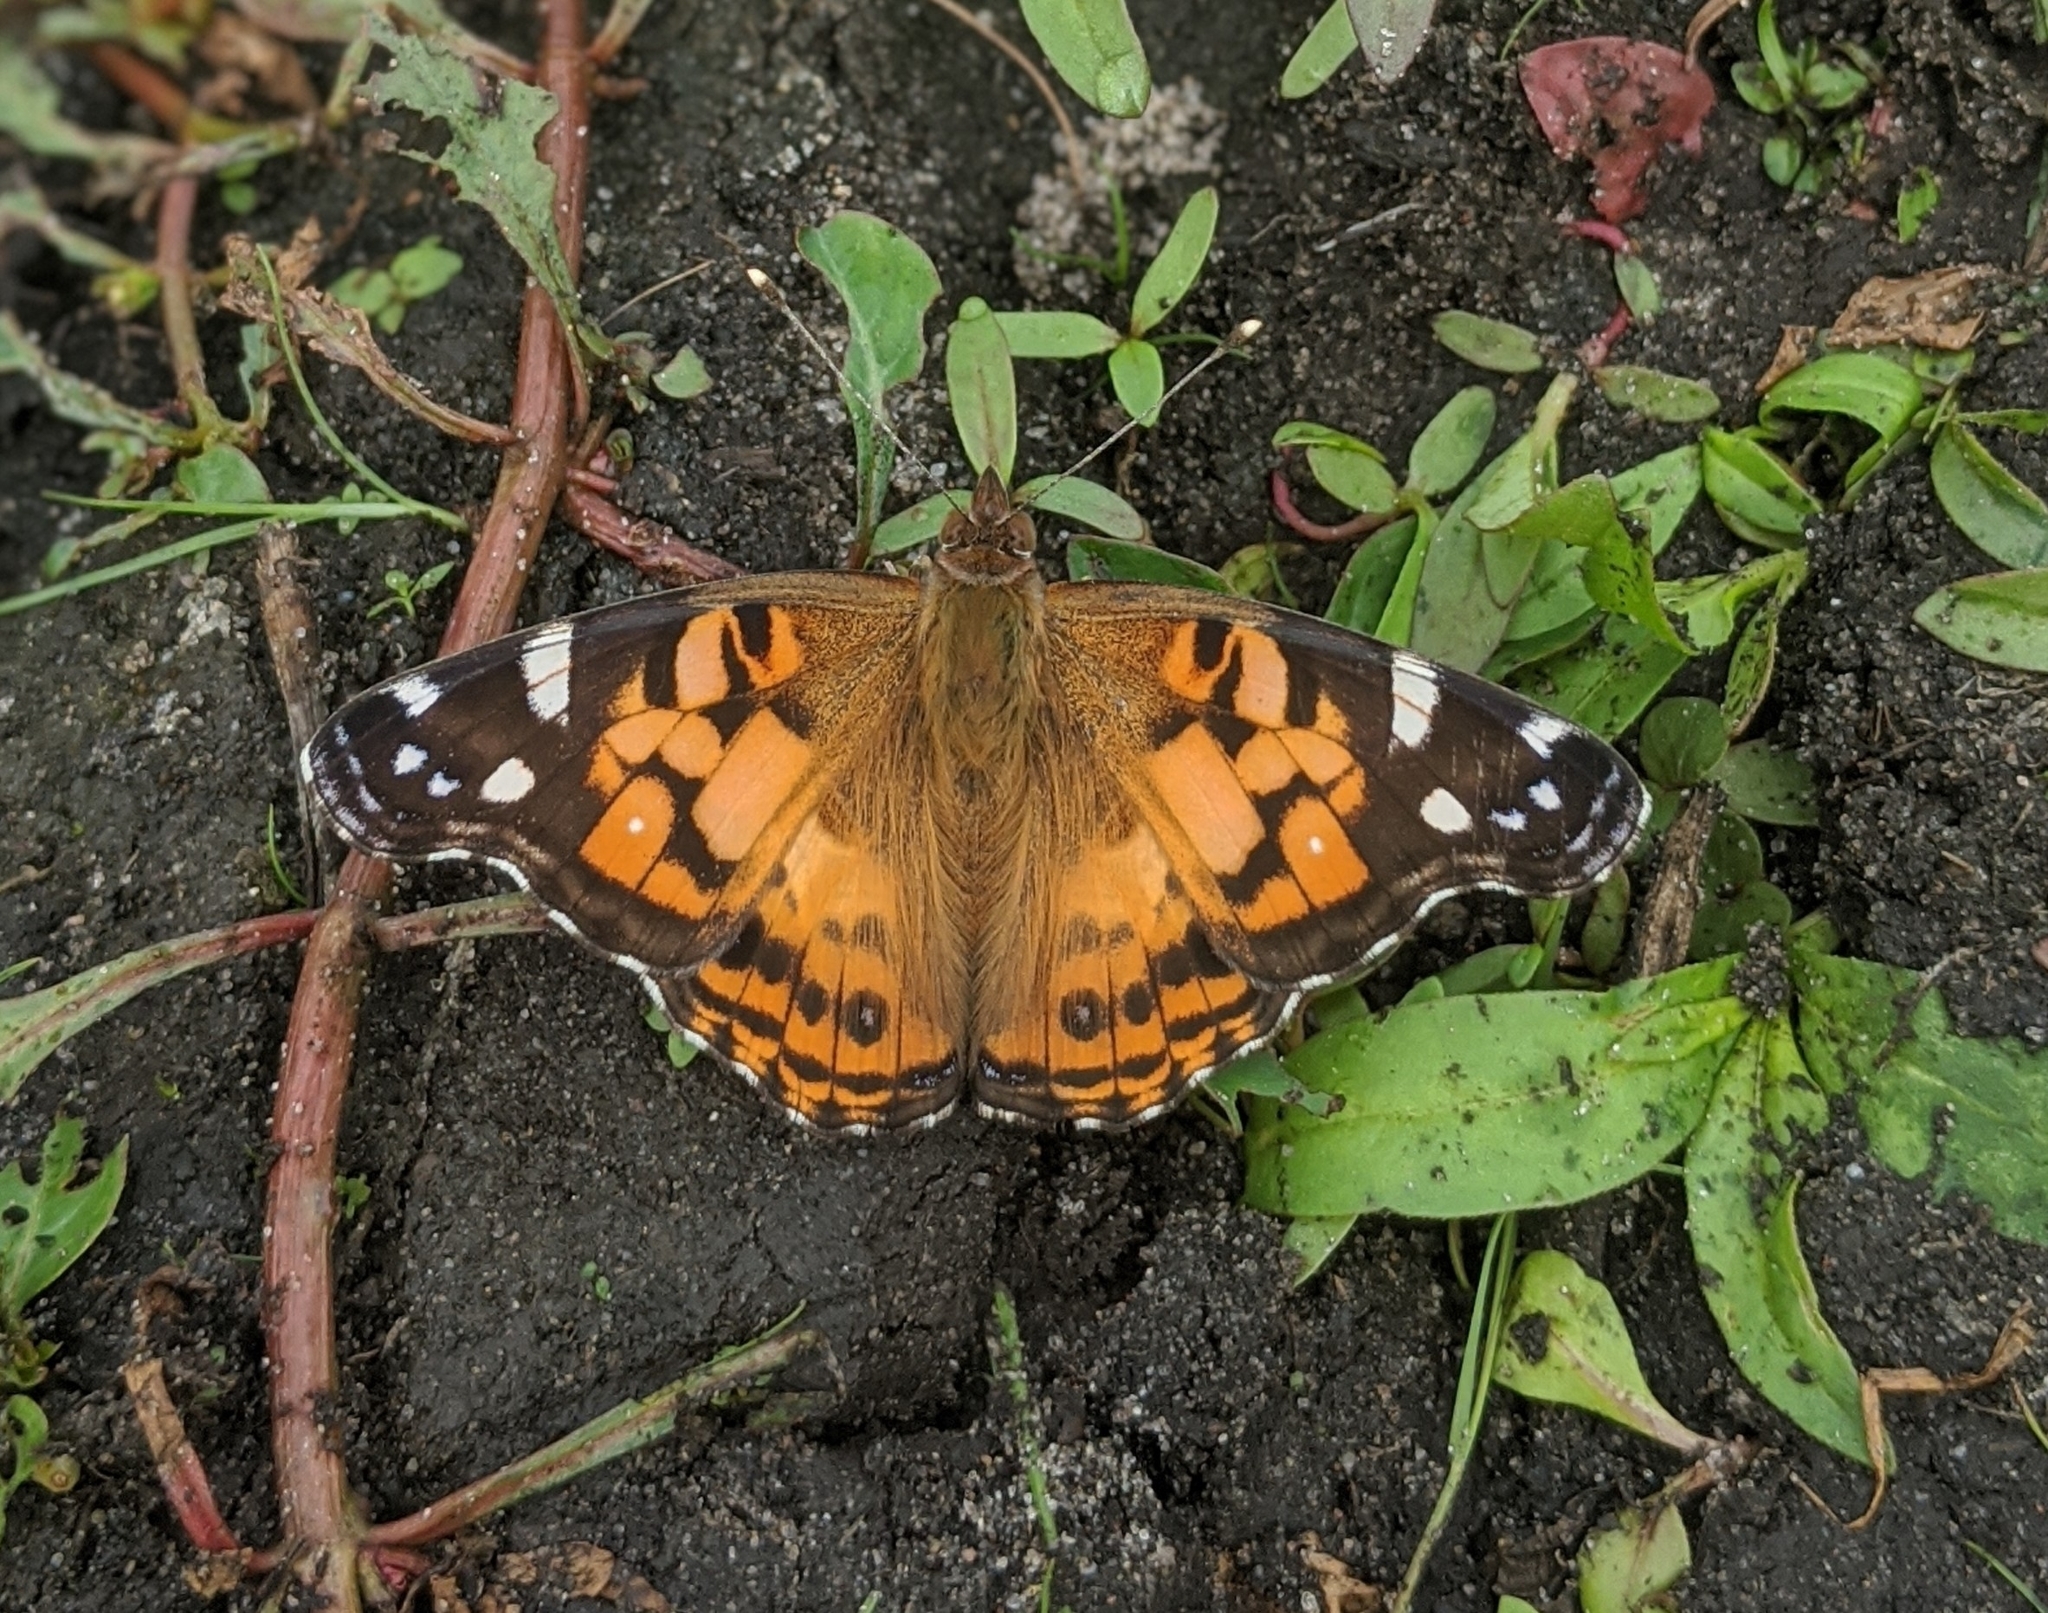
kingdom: Animalia
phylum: Arthropoda
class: Insecta
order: Lepidoptera
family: Nymphalidae
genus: Vanessa
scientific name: Vanessa virginiensis
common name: American lady
